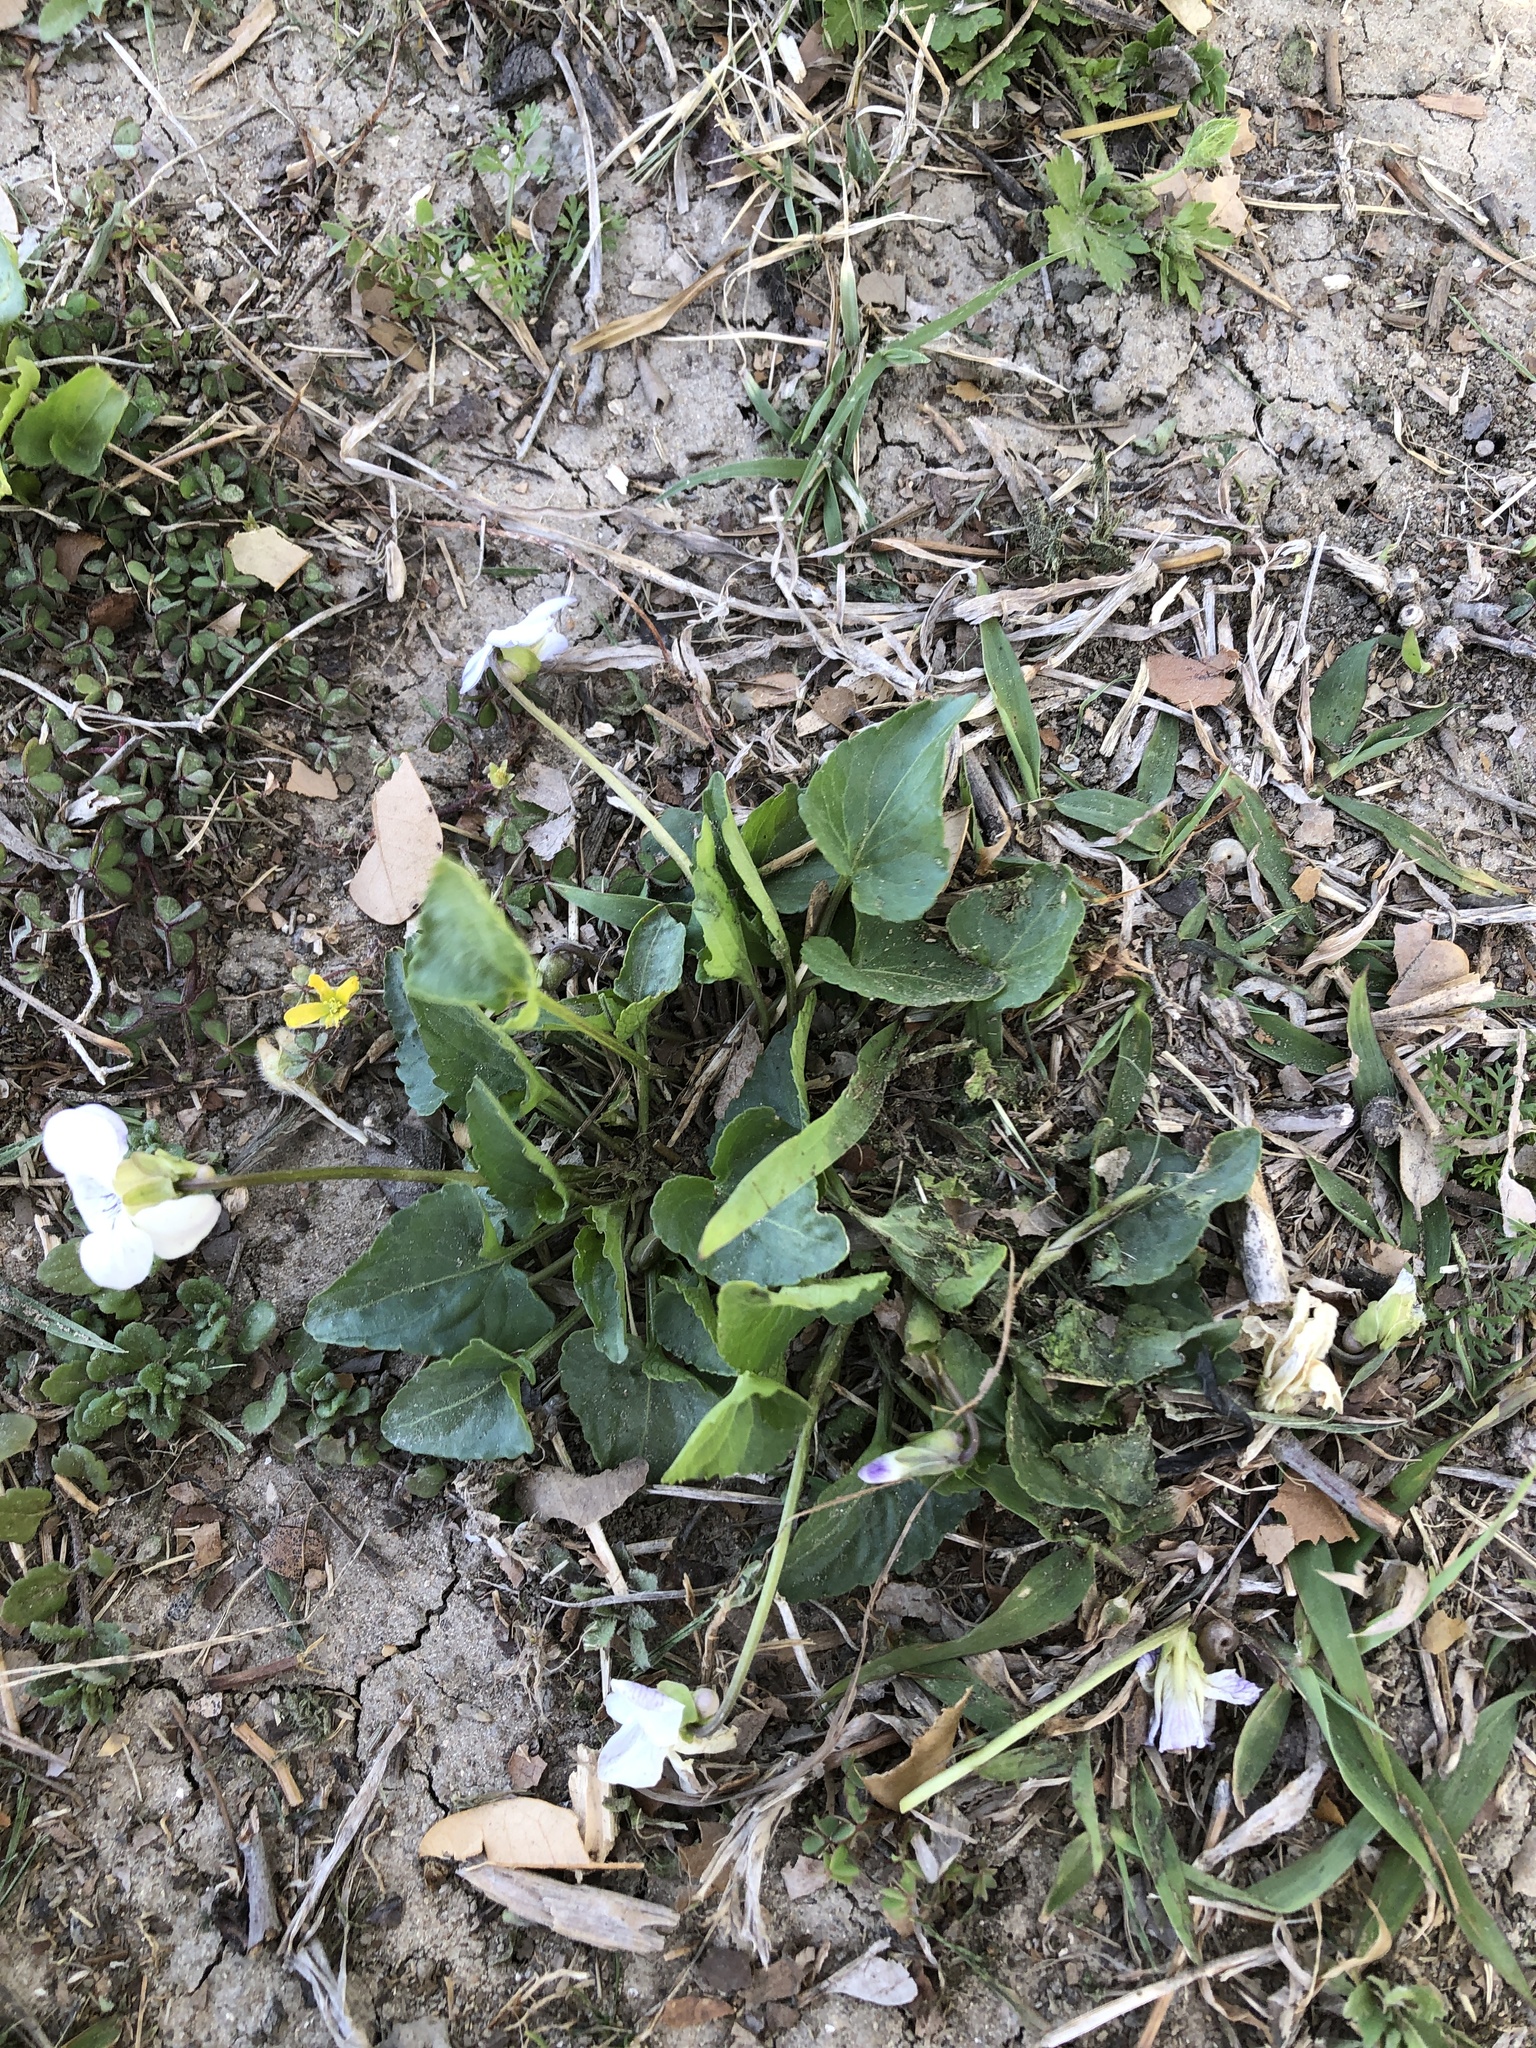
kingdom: Plantae
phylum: Tracheophyta
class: Magnoliopsida
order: Malpighiales
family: Violaceae
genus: Viola
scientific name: Viola missouriensis
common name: Missouri violet
